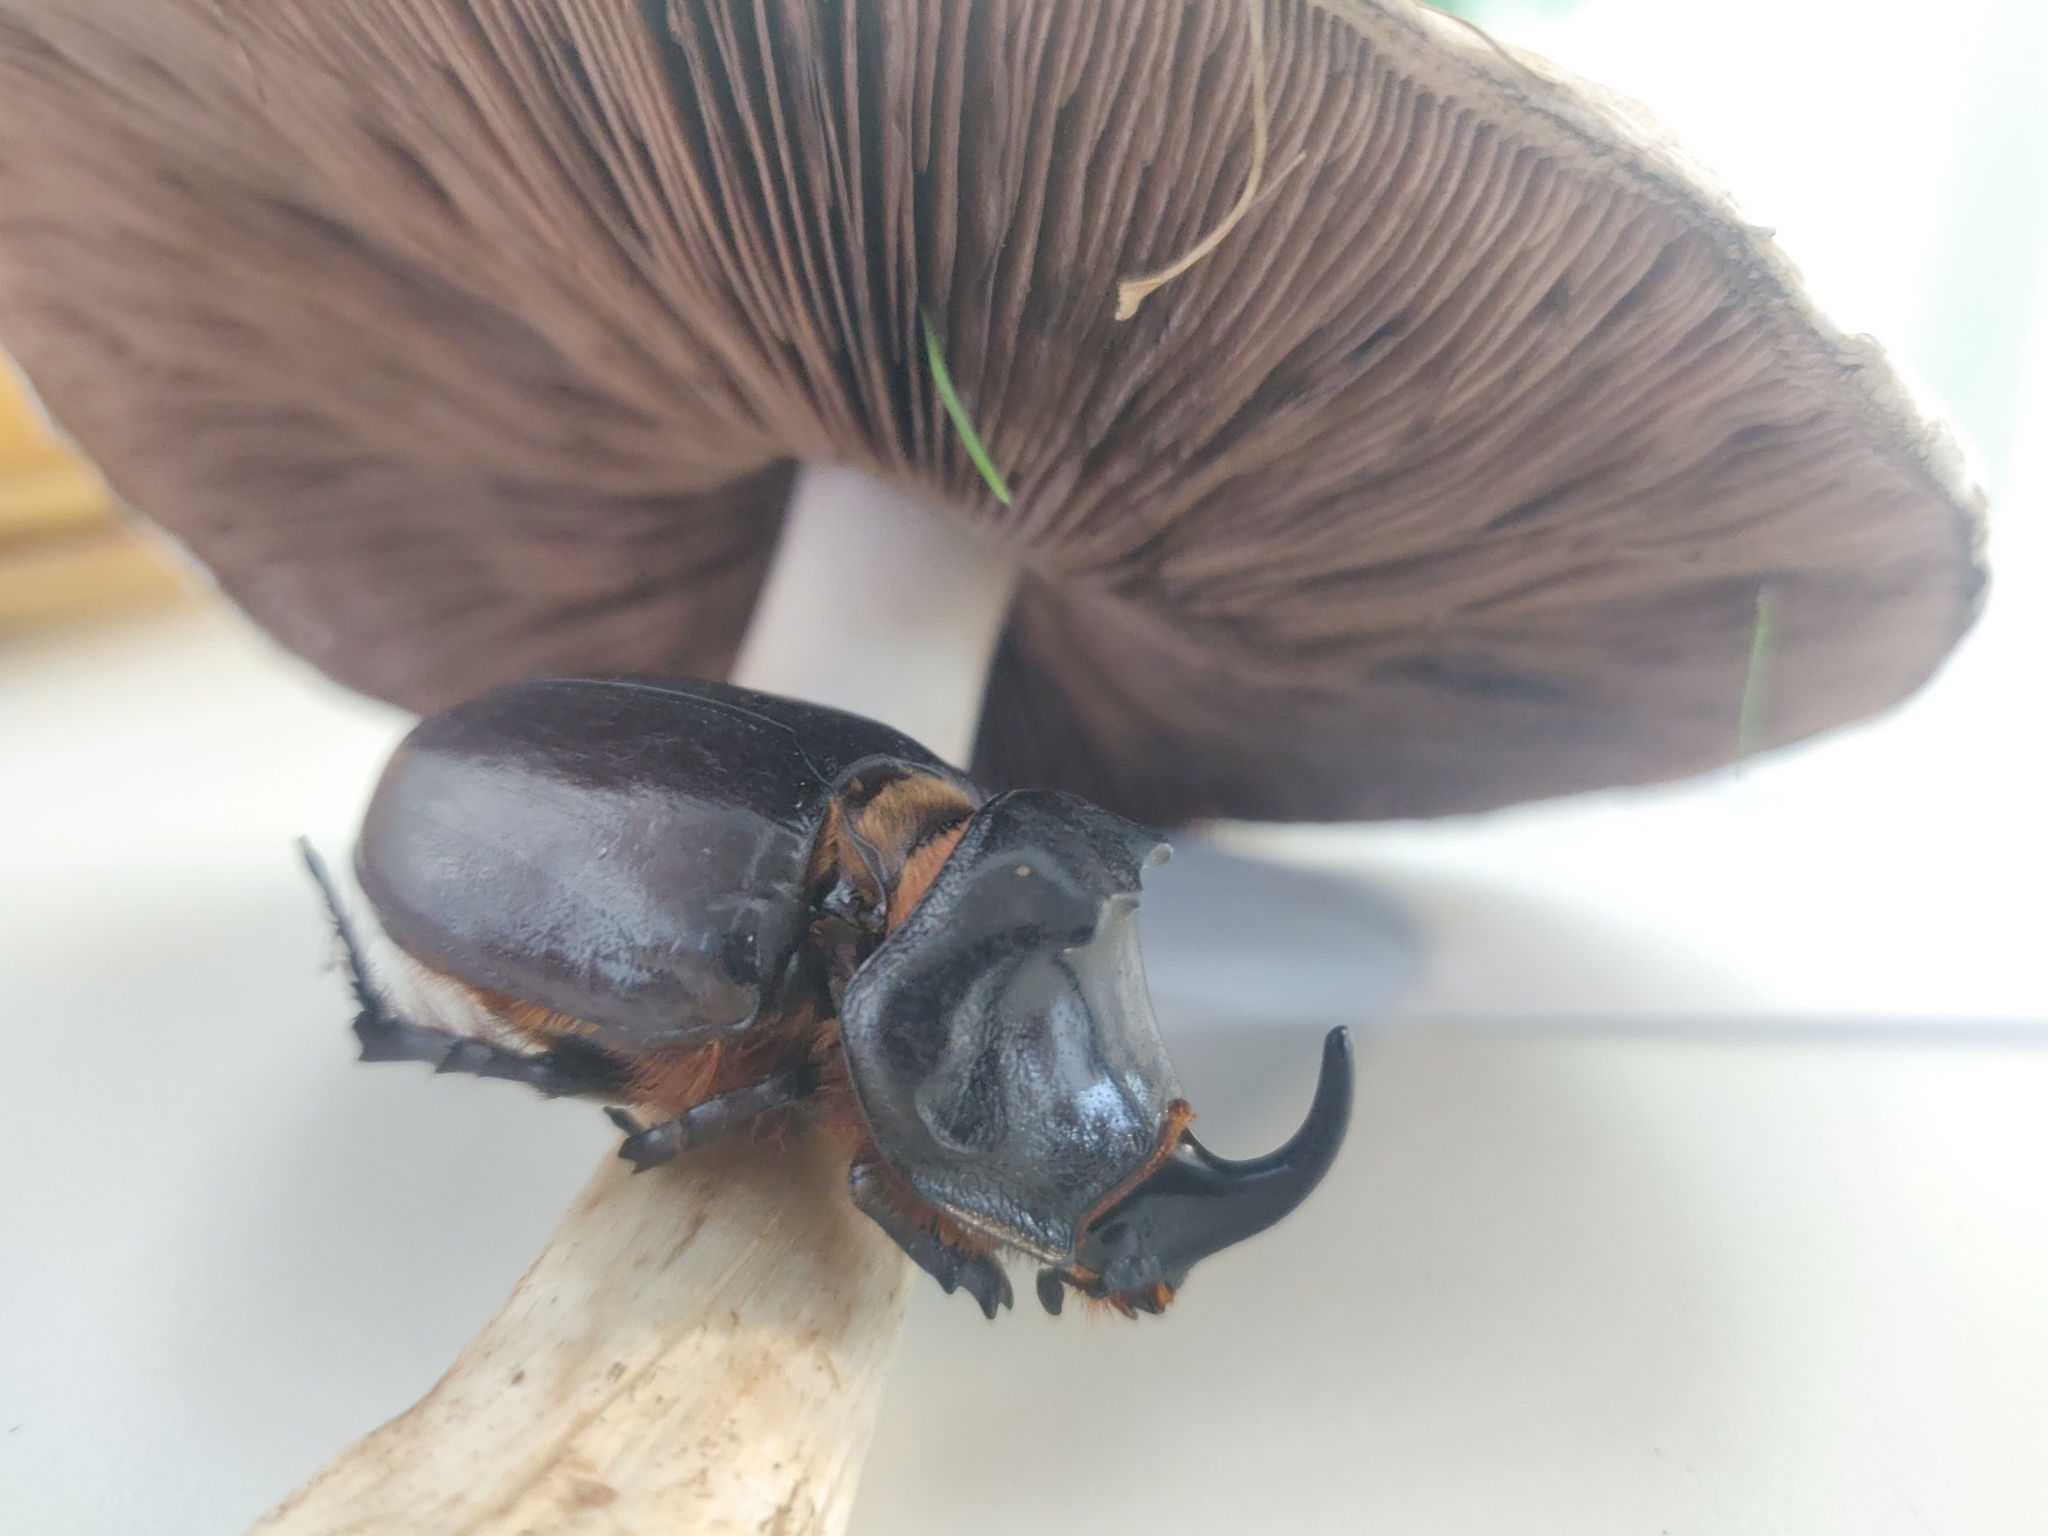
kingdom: Animalia
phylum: Arthropoda
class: Insecta
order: Coleoptera
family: Scarabaeidae
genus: Oryctes
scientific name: Oryctes nasicornis
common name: European rhinoceros beetle
